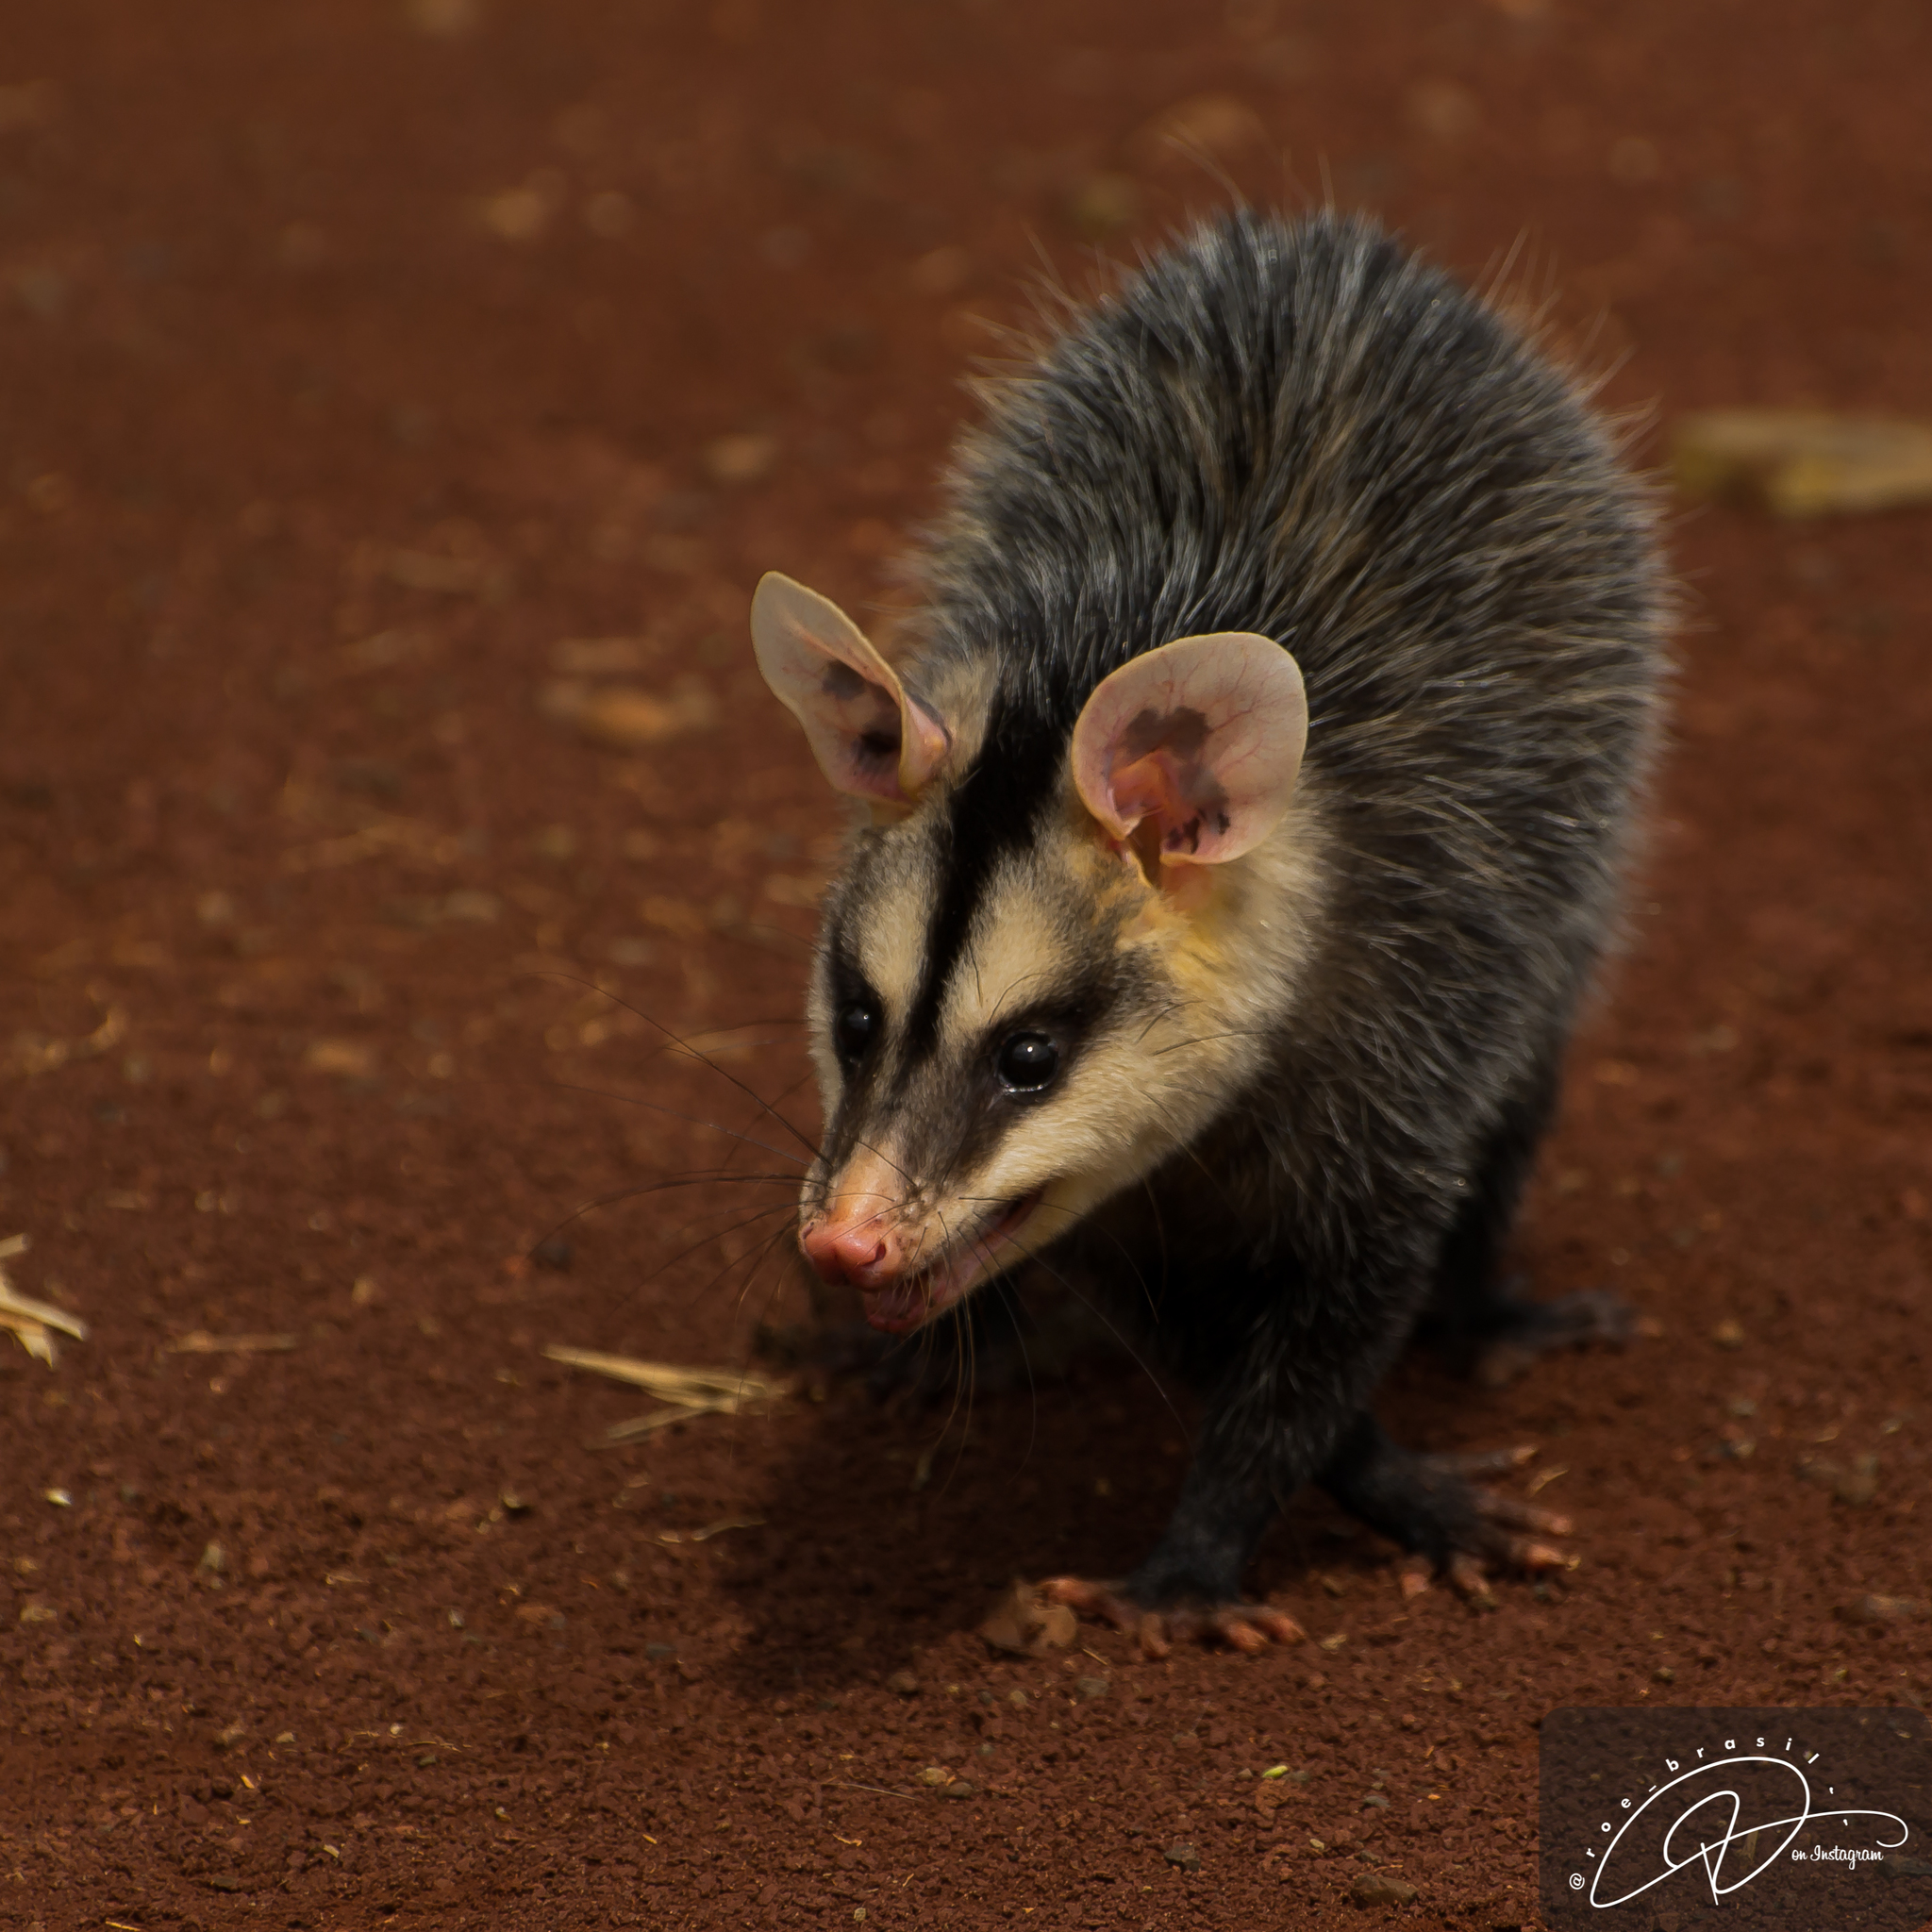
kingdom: Animalia
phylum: Chordata
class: Mammalia
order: Didelphimorphia
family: Didelphidae
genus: Didelphis
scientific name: Didelphis albiventris
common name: White-eared opossum
